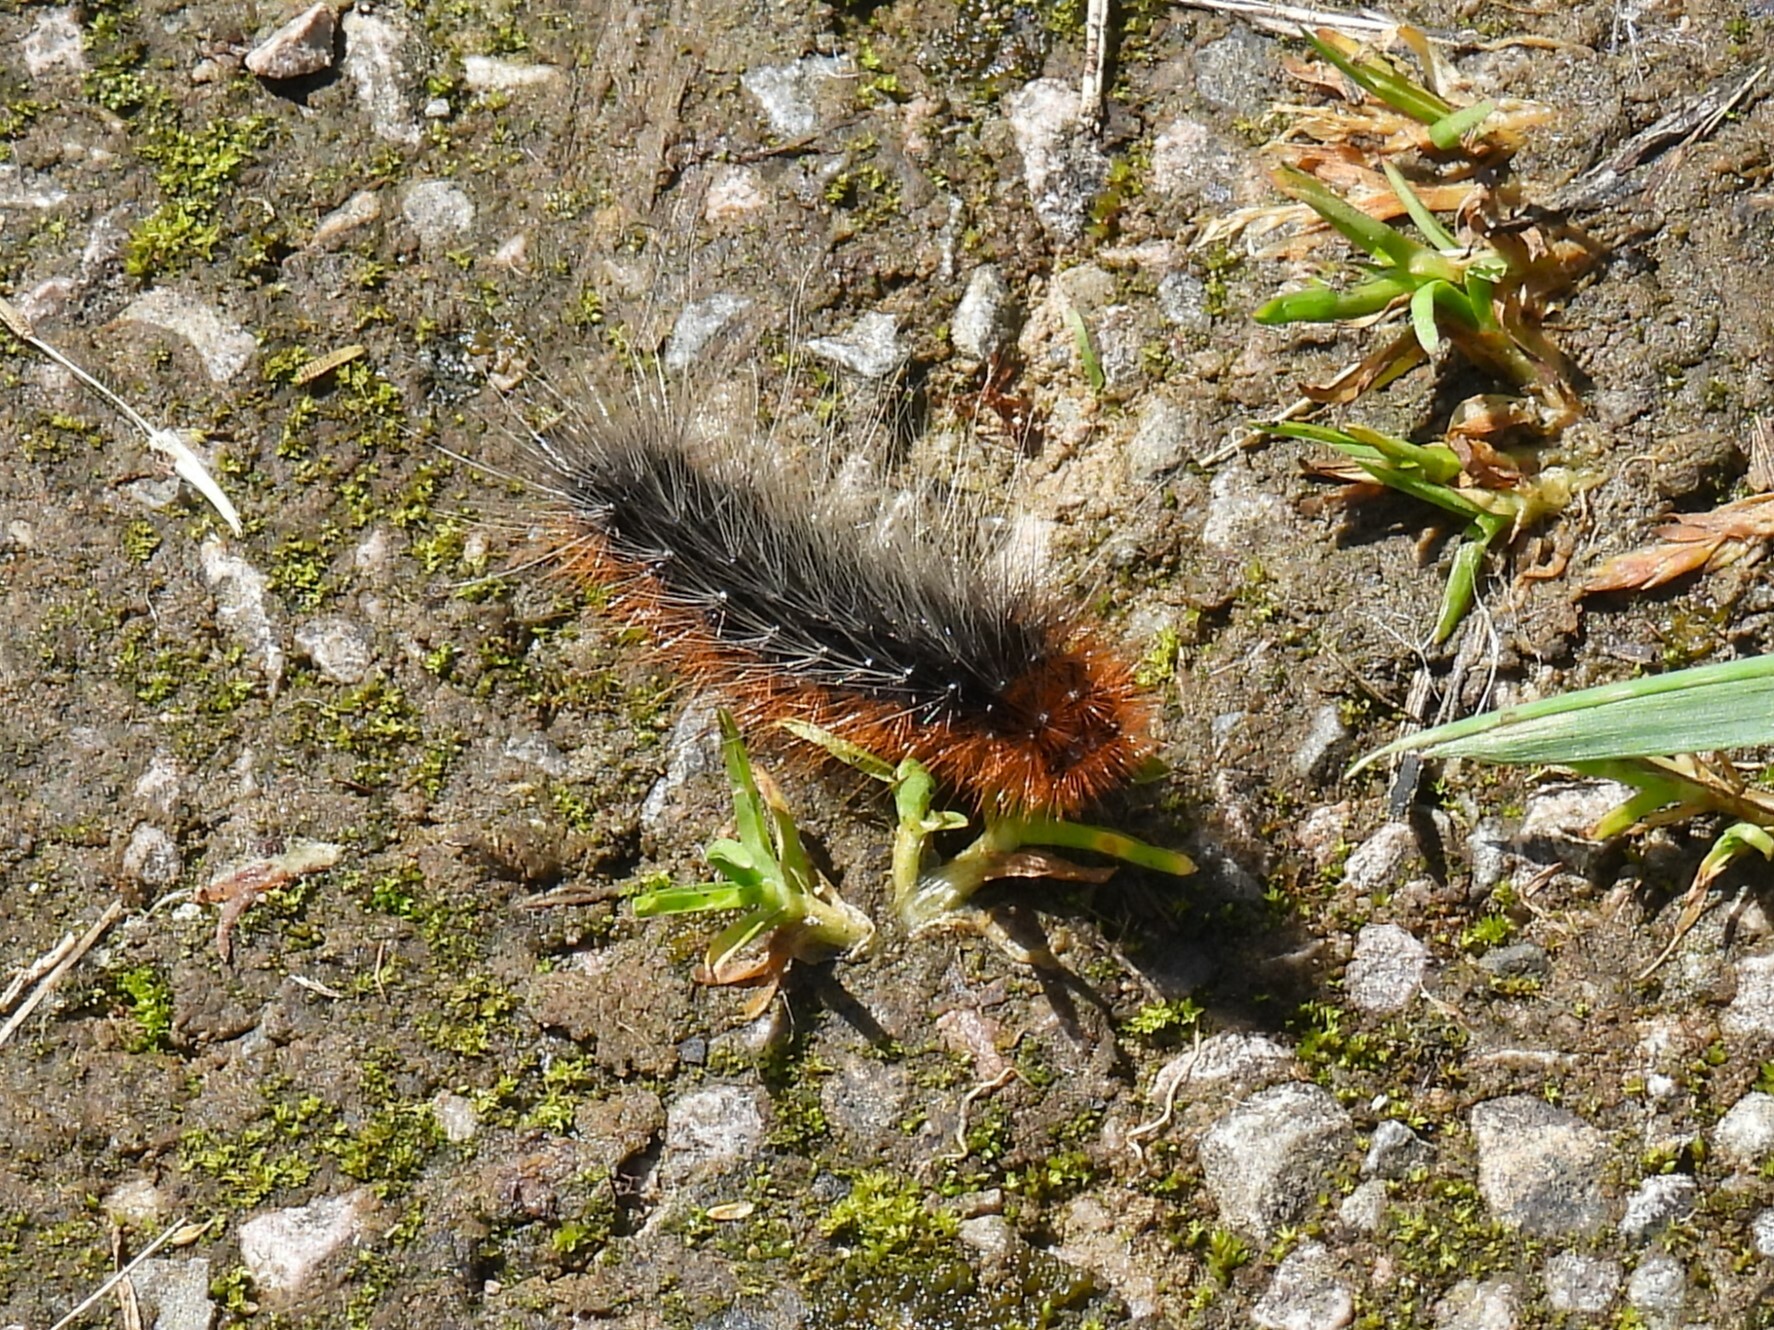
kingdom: Animalia
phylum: Arthropoda
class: Insecta
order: Lepidoptera
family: Erebidae
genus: Arctia
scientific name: Arctia caja
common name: Garden tiger
